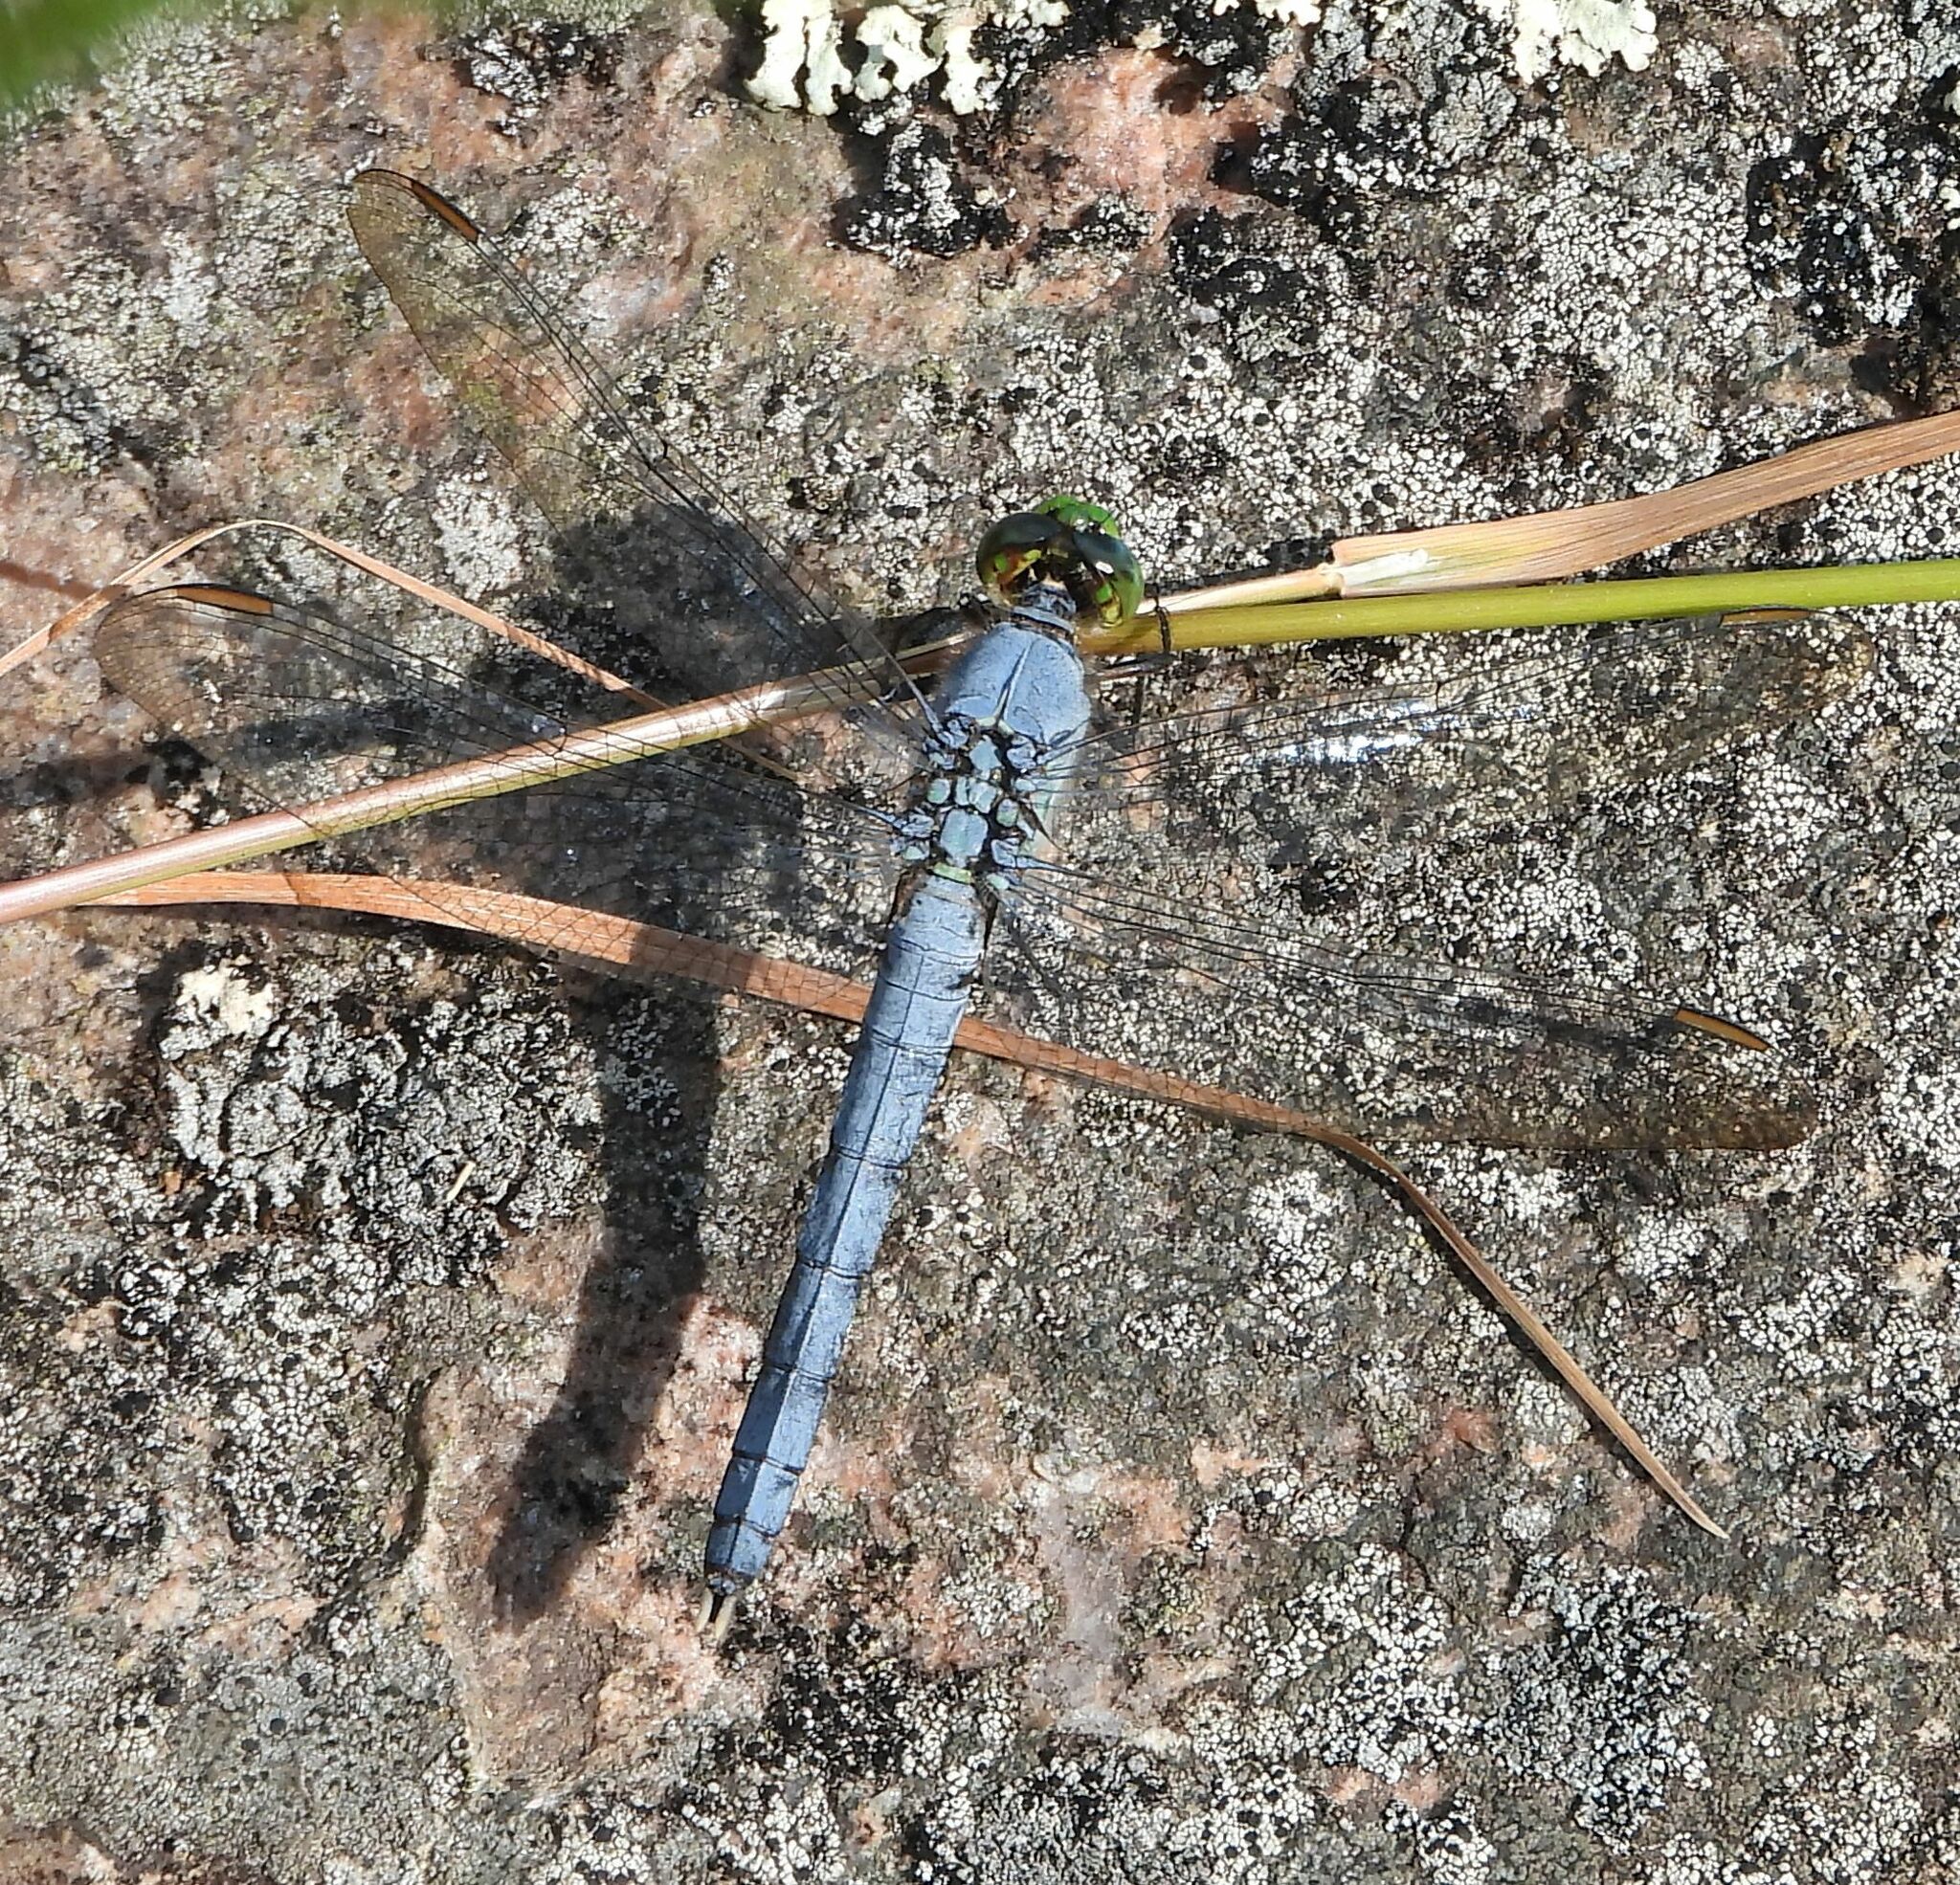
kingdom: Animalia
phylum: Arthropoda
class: Insecta
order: Odonata
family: Libellulidae
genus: Erythemis
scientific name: Erythemis simplicicollis
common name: Eastern pondhawk
